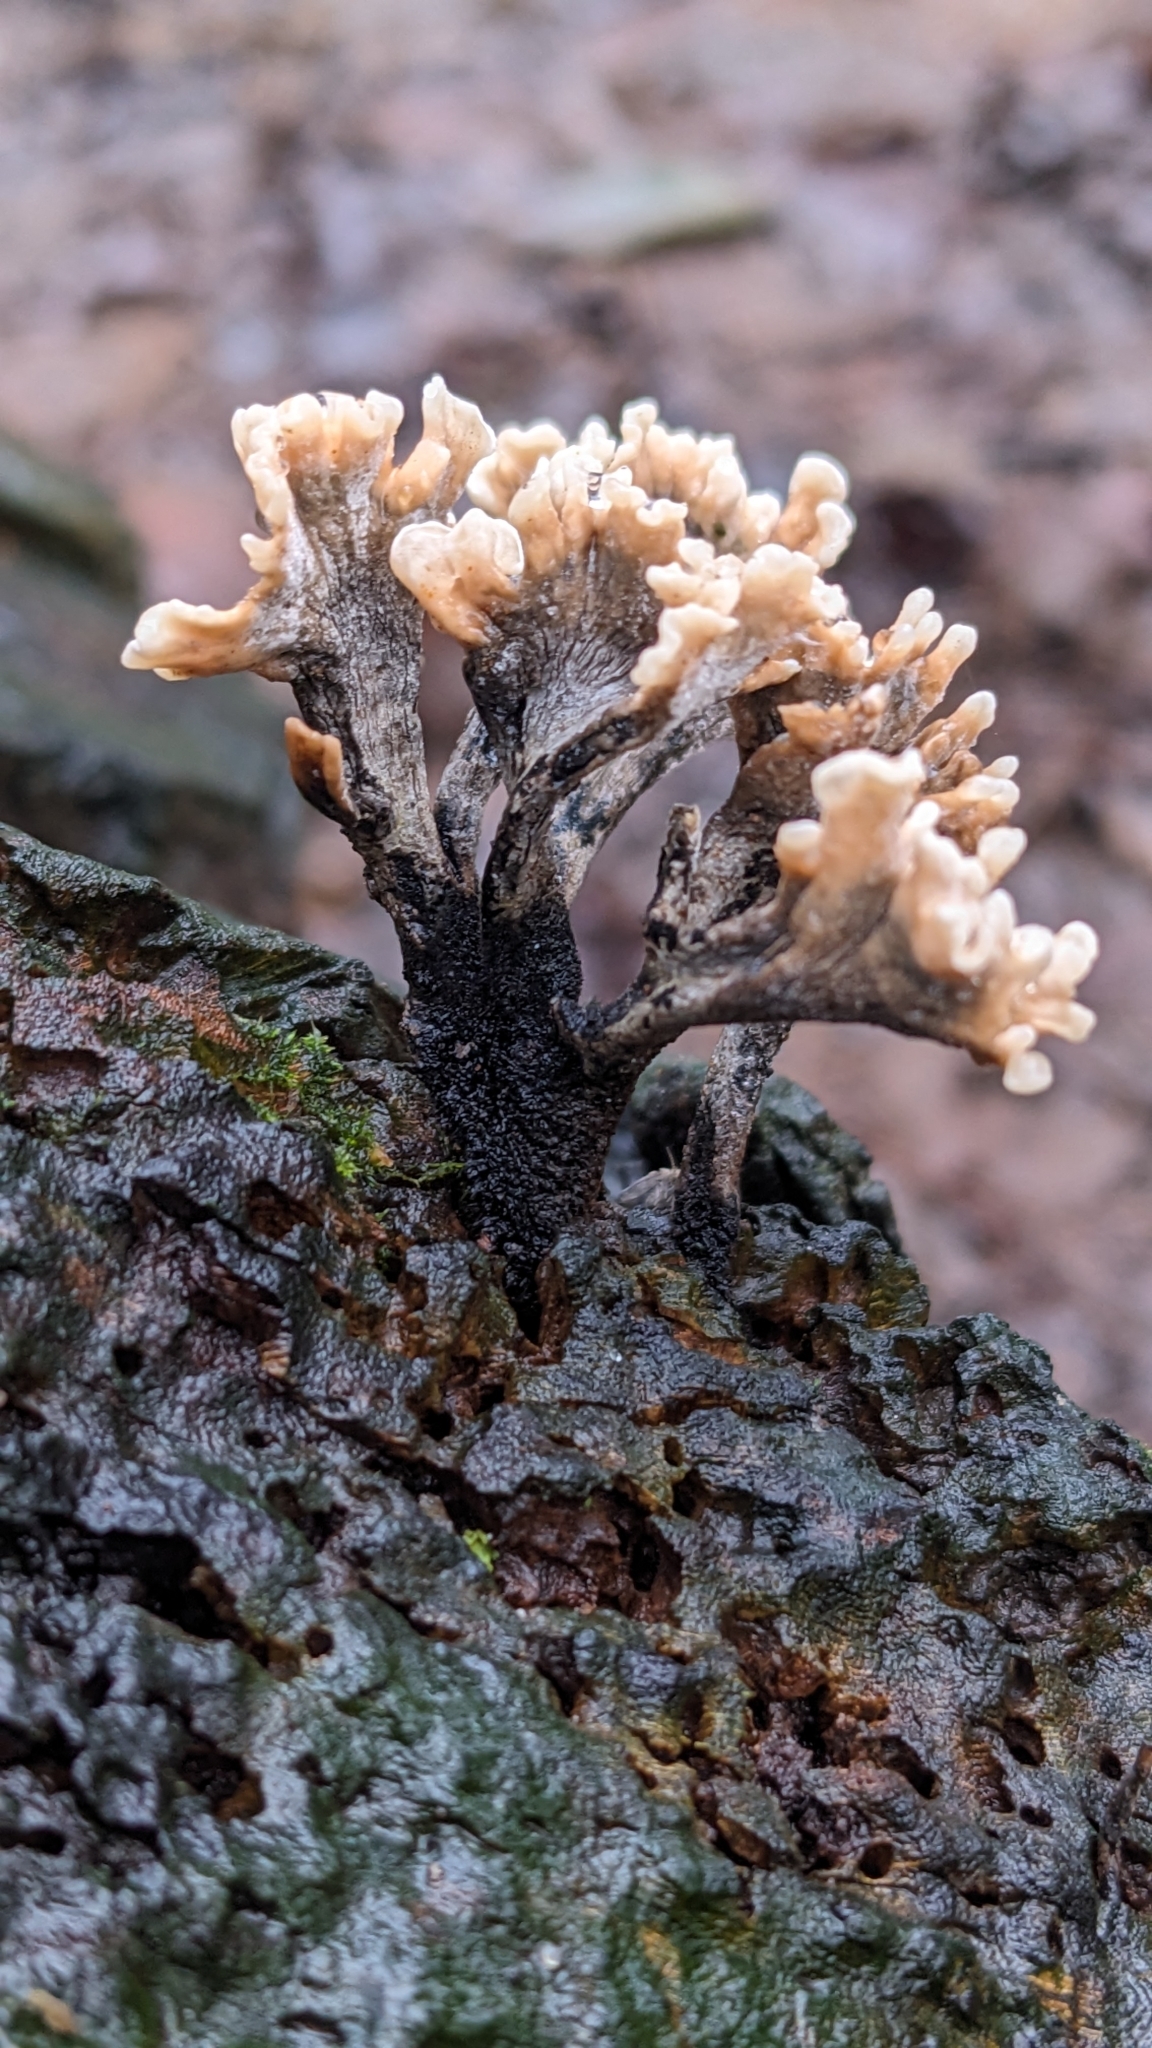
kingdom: Fungi
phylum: Ascomycota
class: Sordariomycetes
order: Xylariales
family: Xylariaceae
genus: Xylaria
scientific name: Xylaria hypoxylon
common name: Candle-snuff fungus
